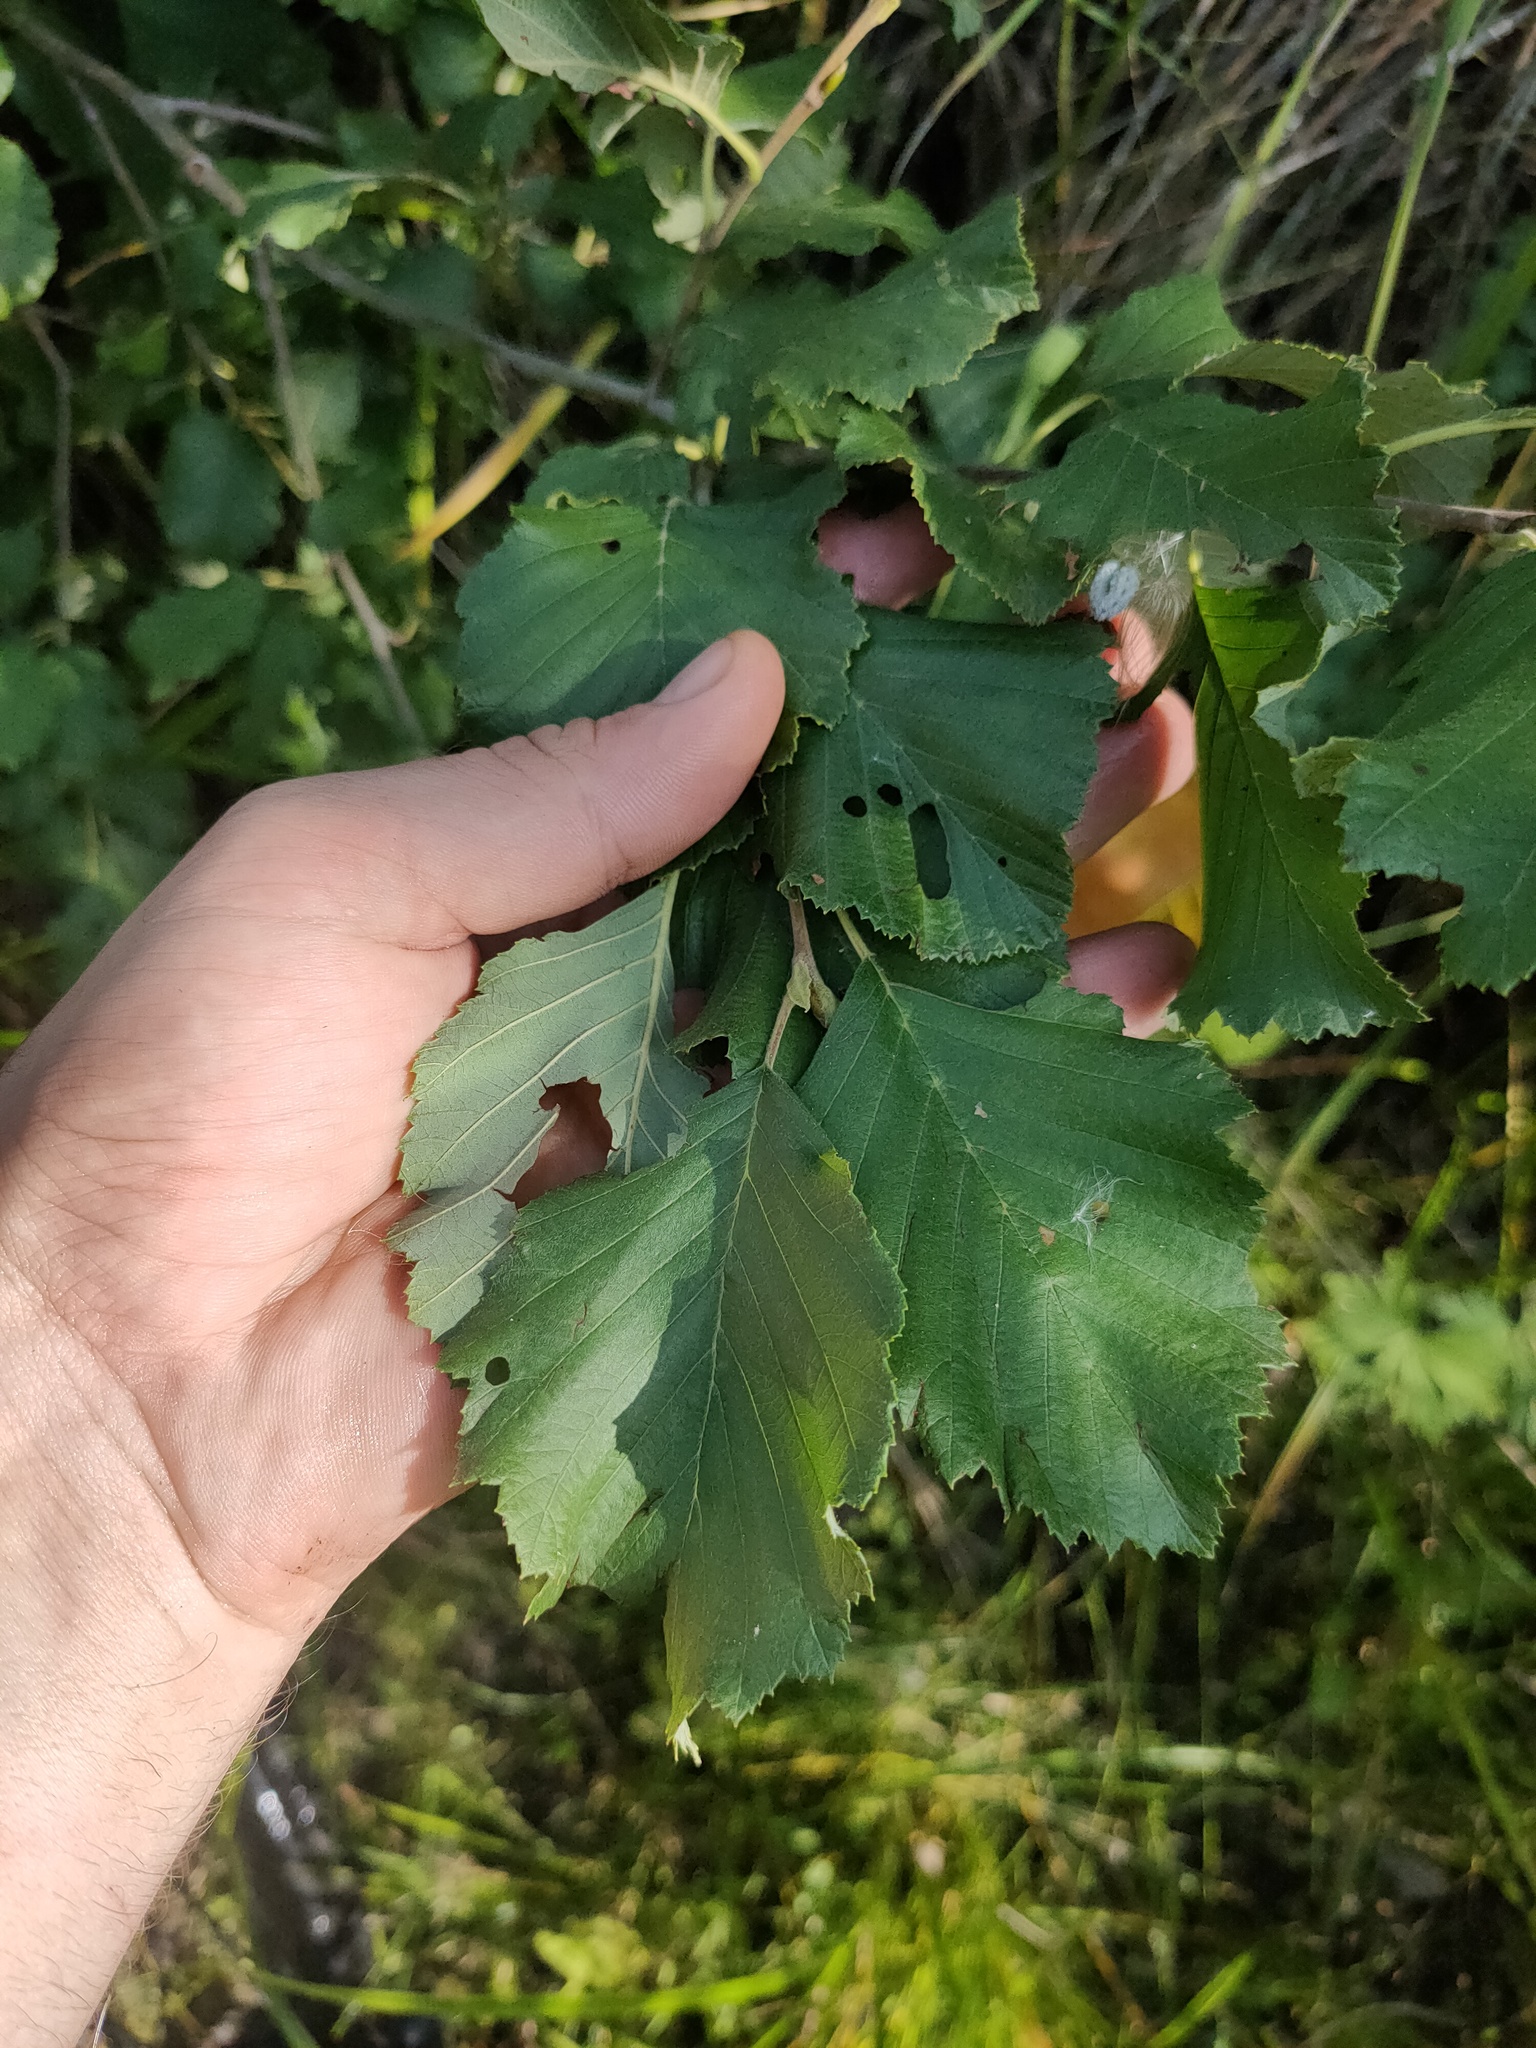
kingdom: Plantae
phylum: Tracheophyta
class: Magnoliopsida
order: Fagales
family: Betulaceae
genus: Alnus
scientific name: Alnus incana
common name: Grey alder
